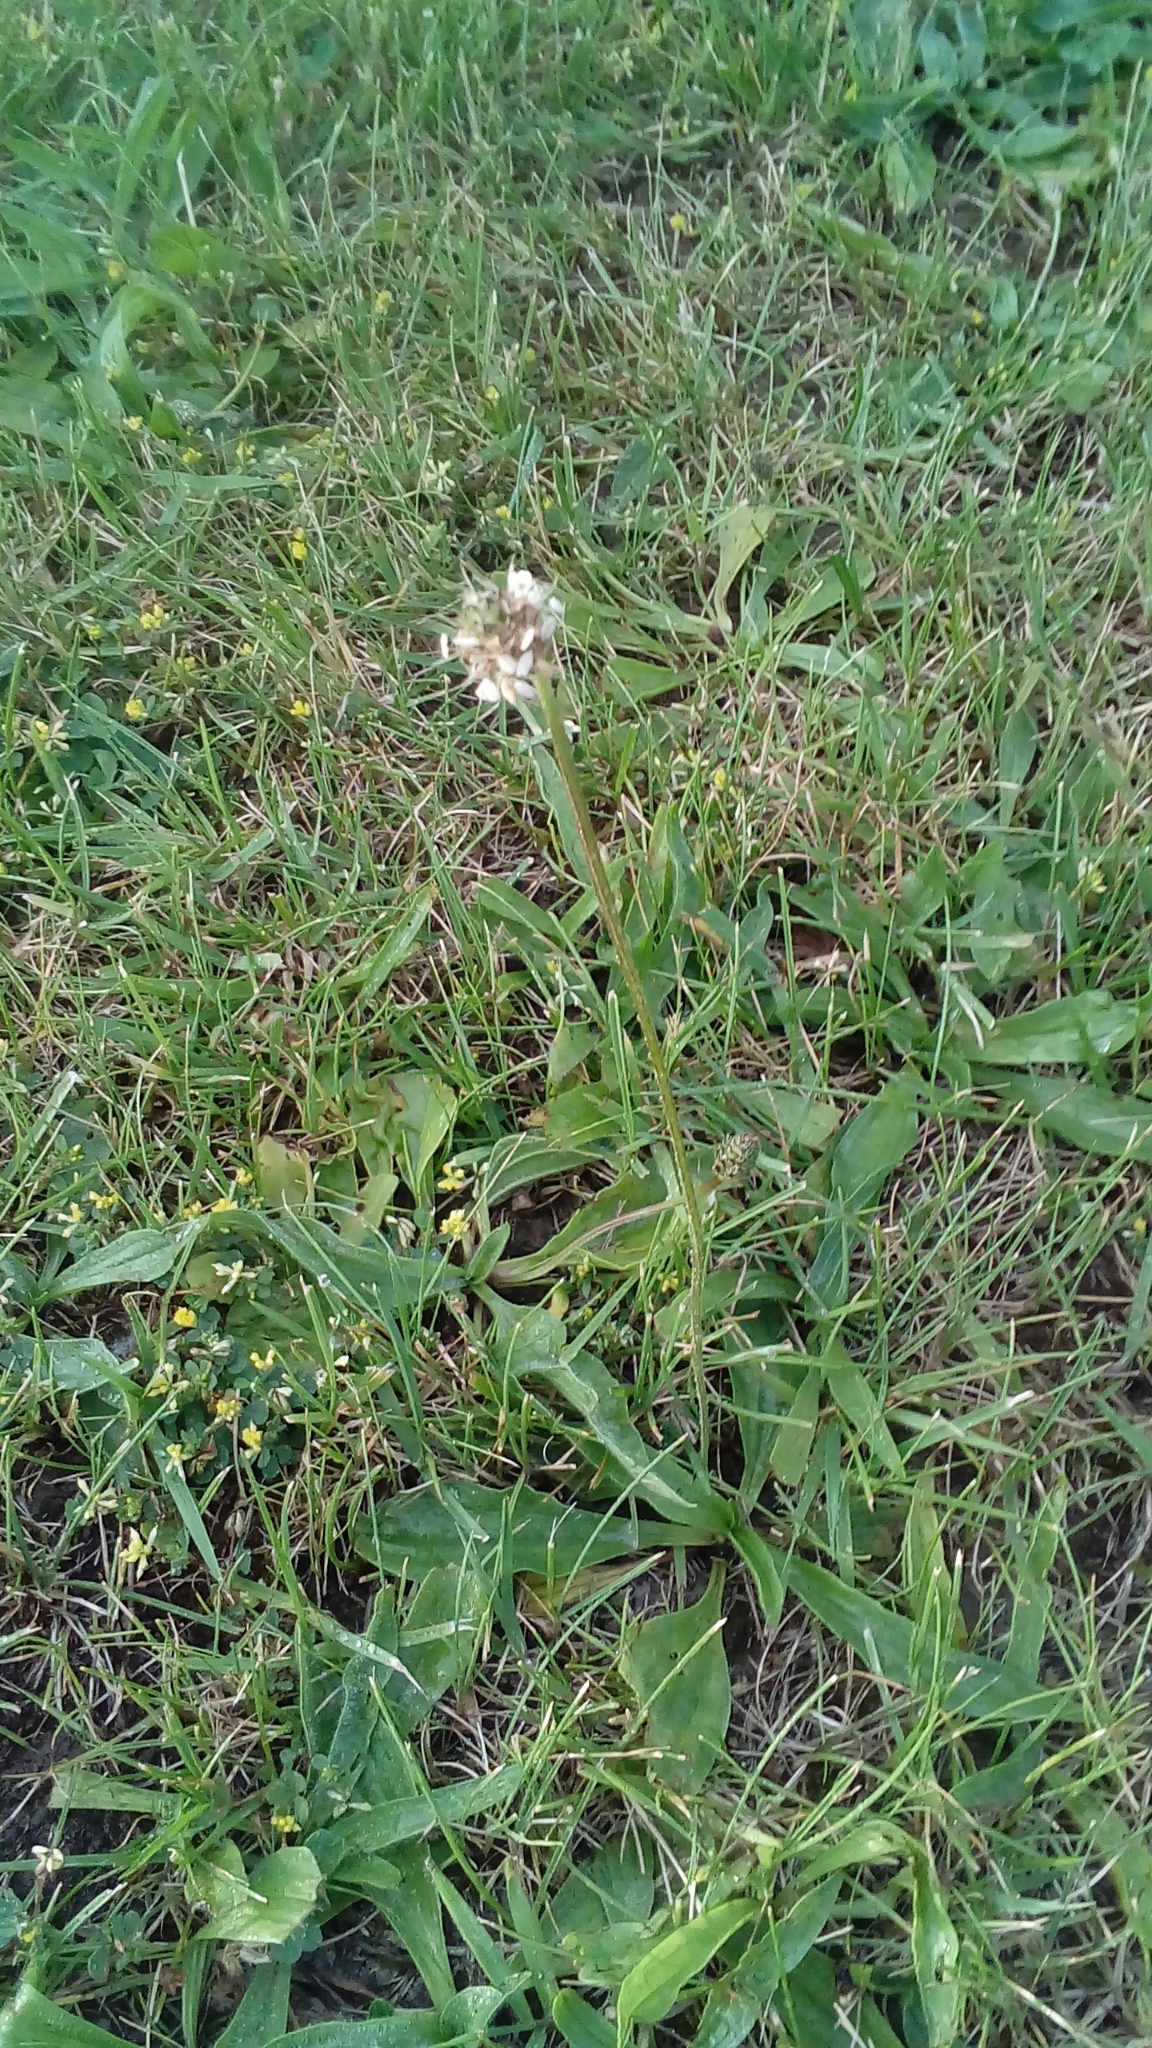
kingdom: Plantae
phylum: Tracheophyta
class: Magnoliopsida
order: Lamiales
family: Plantaginaceae
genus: Plantago
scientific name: Plantago lanceolata
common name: Ribwort plantain
